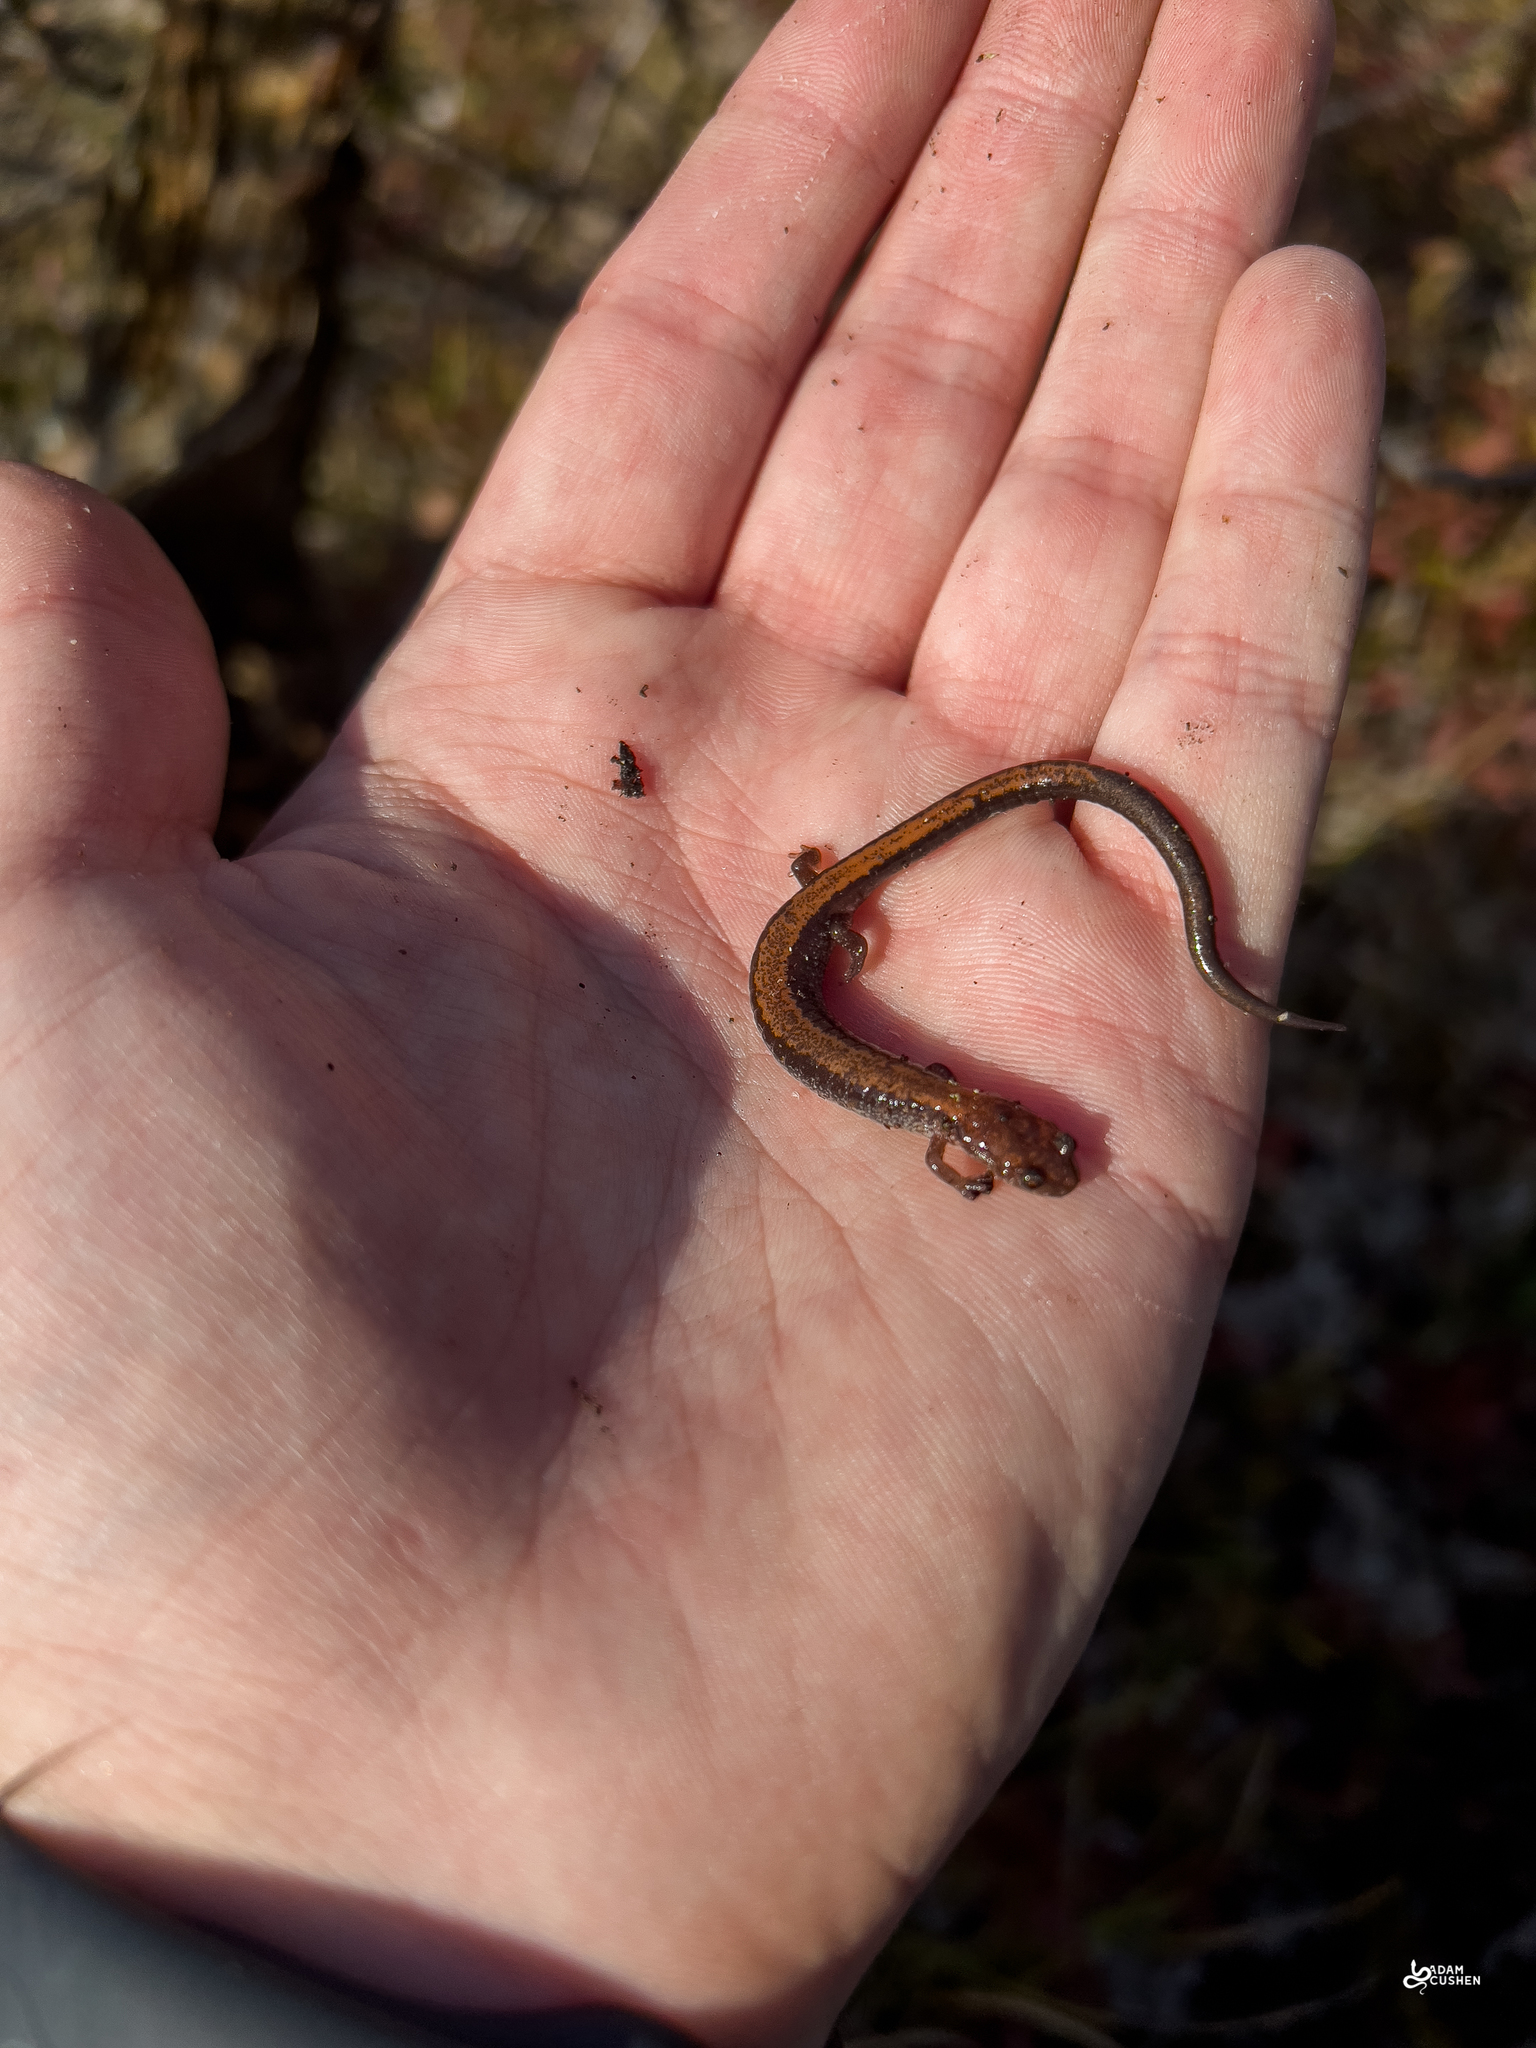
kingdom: Animalia
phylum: Chordata
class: Amphibia
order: Caudata
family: Plethodontidae
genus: Plethodon
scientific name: Plethodon cinereus
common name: Redback salamander
